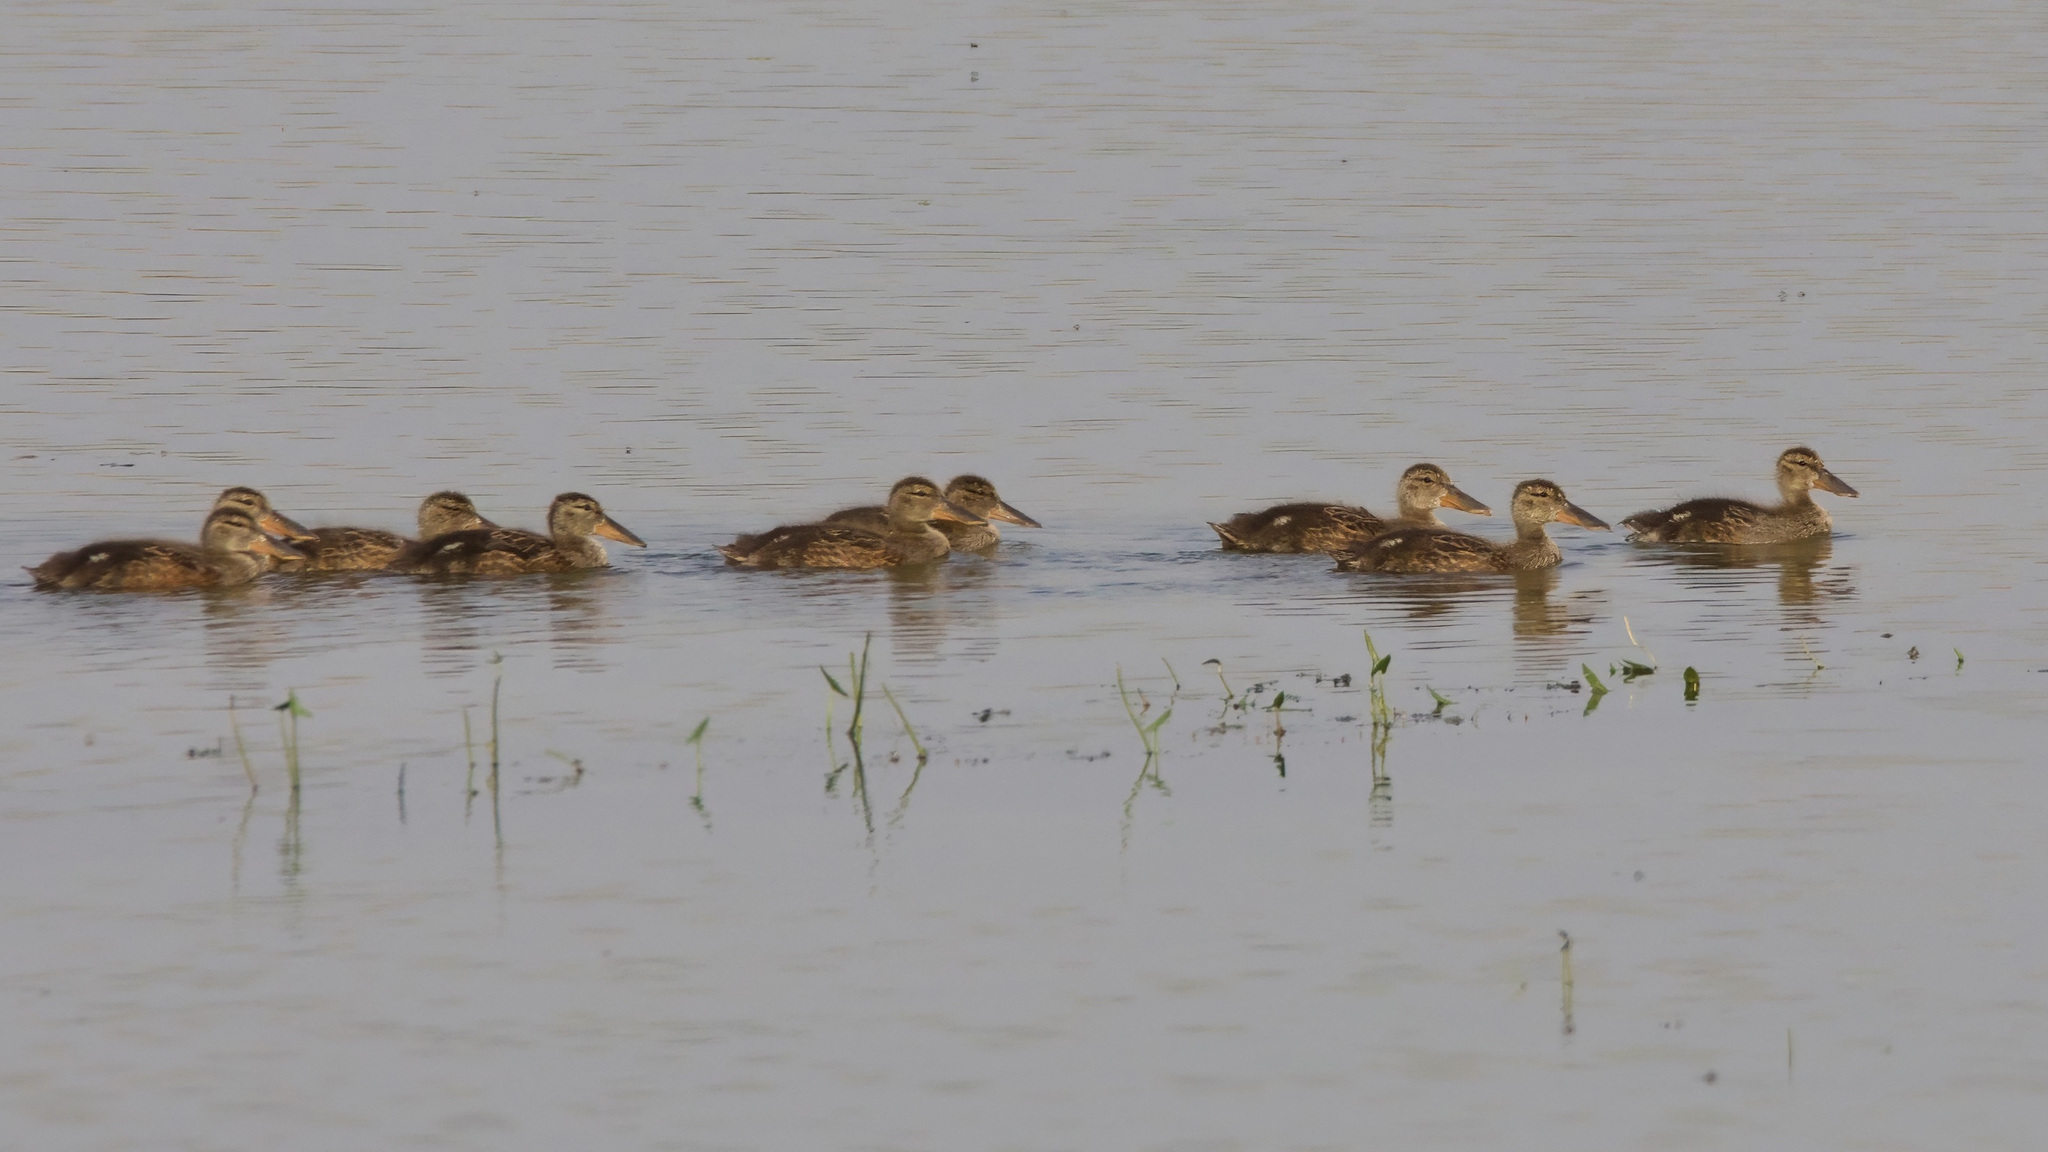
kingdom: Animalia
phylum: Chordata
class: Aves
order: Anseriformes
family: Anatidae
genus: Spatula
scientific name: Spatula clypeata
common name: Northern shoveler
